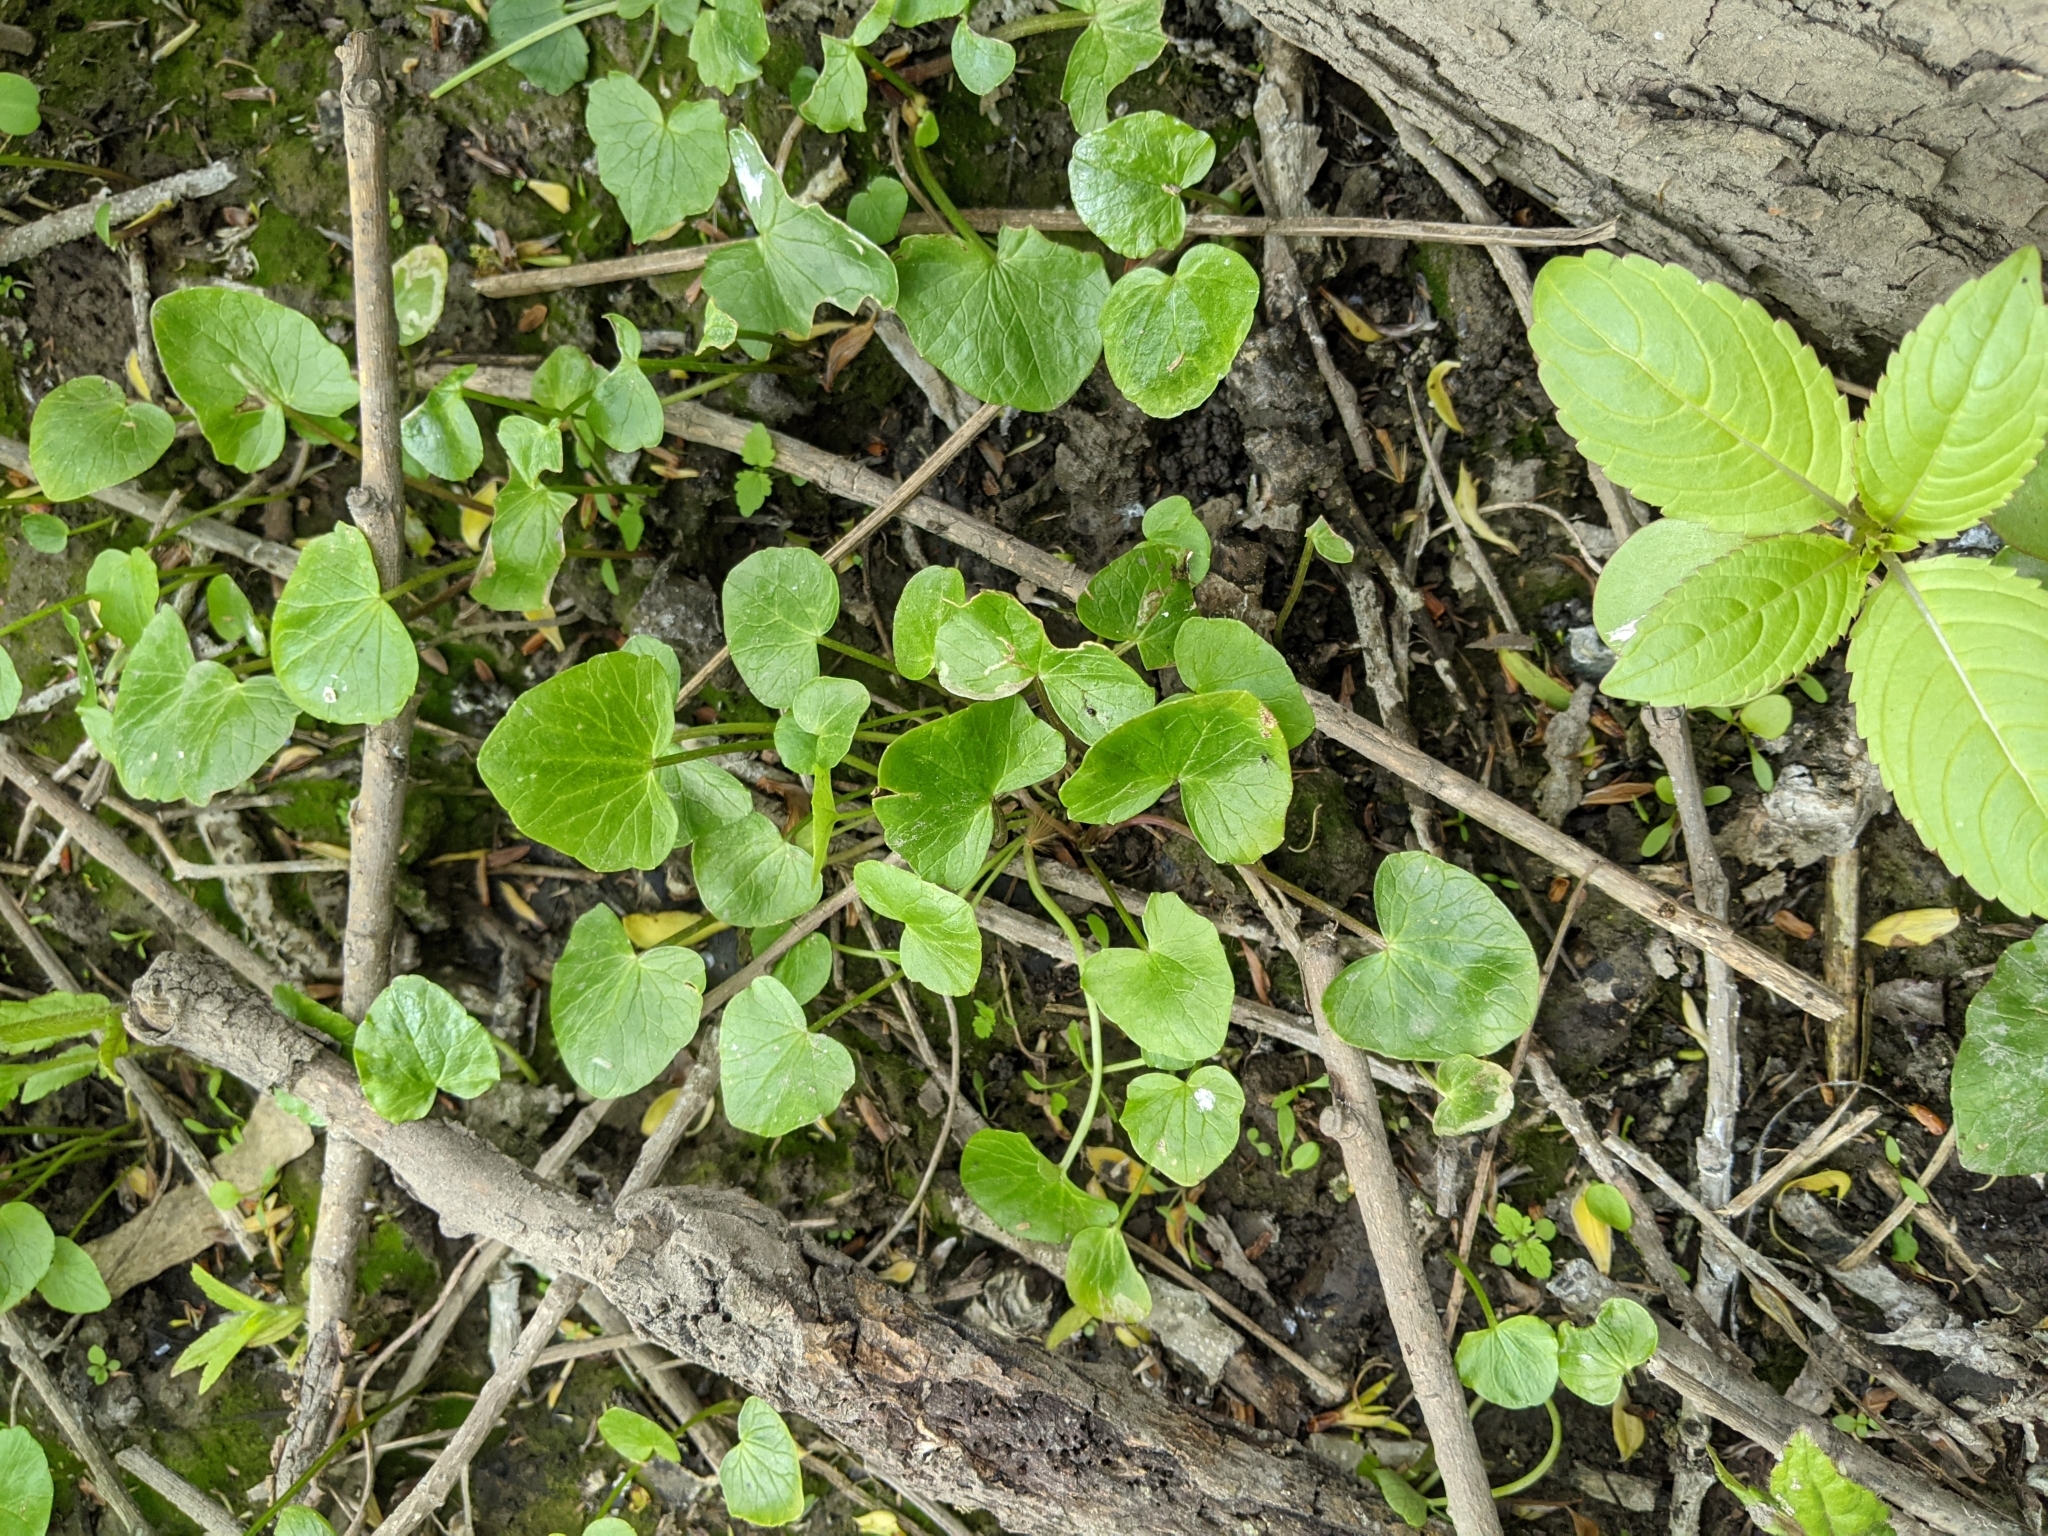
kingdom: Plantae
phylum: Tracheophyta
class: Magnoliopsida
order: Ranunculales
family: Ranunculaceae
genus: Ficaria
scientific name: Ficaria verna
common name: Lesser celandine
